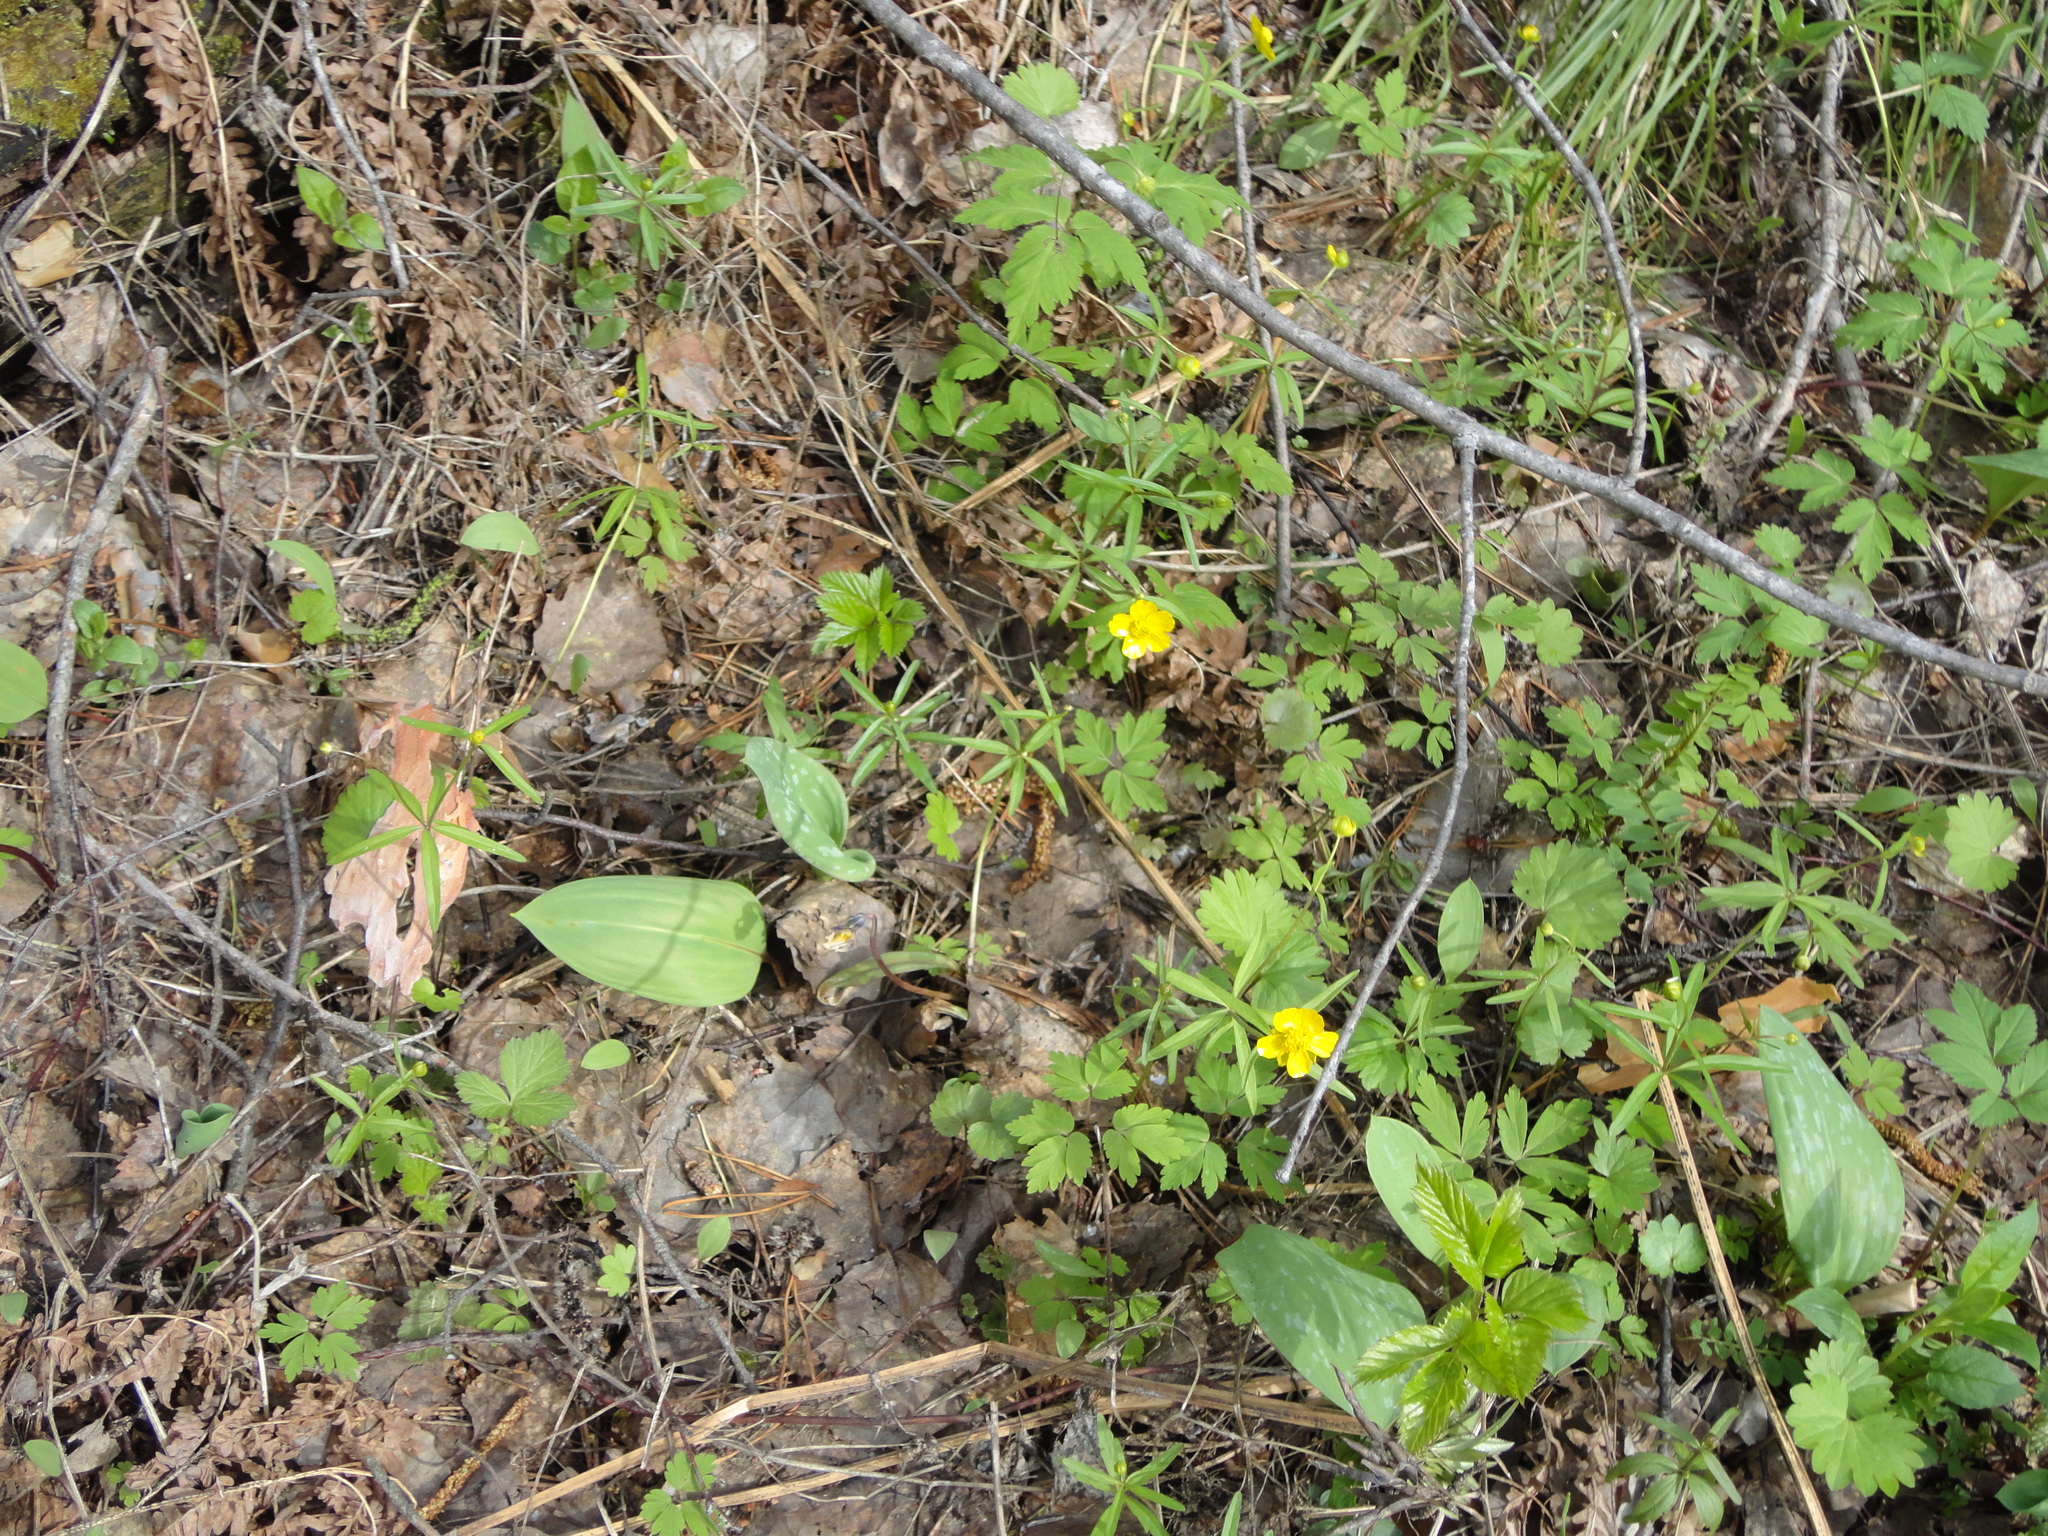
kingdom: Plantae
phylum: Tracheophyta
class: Magnoliopsida
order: Ranunculales
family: Ranunculaceae
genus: Ranunculus
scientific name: Ranunculus monophyllus
